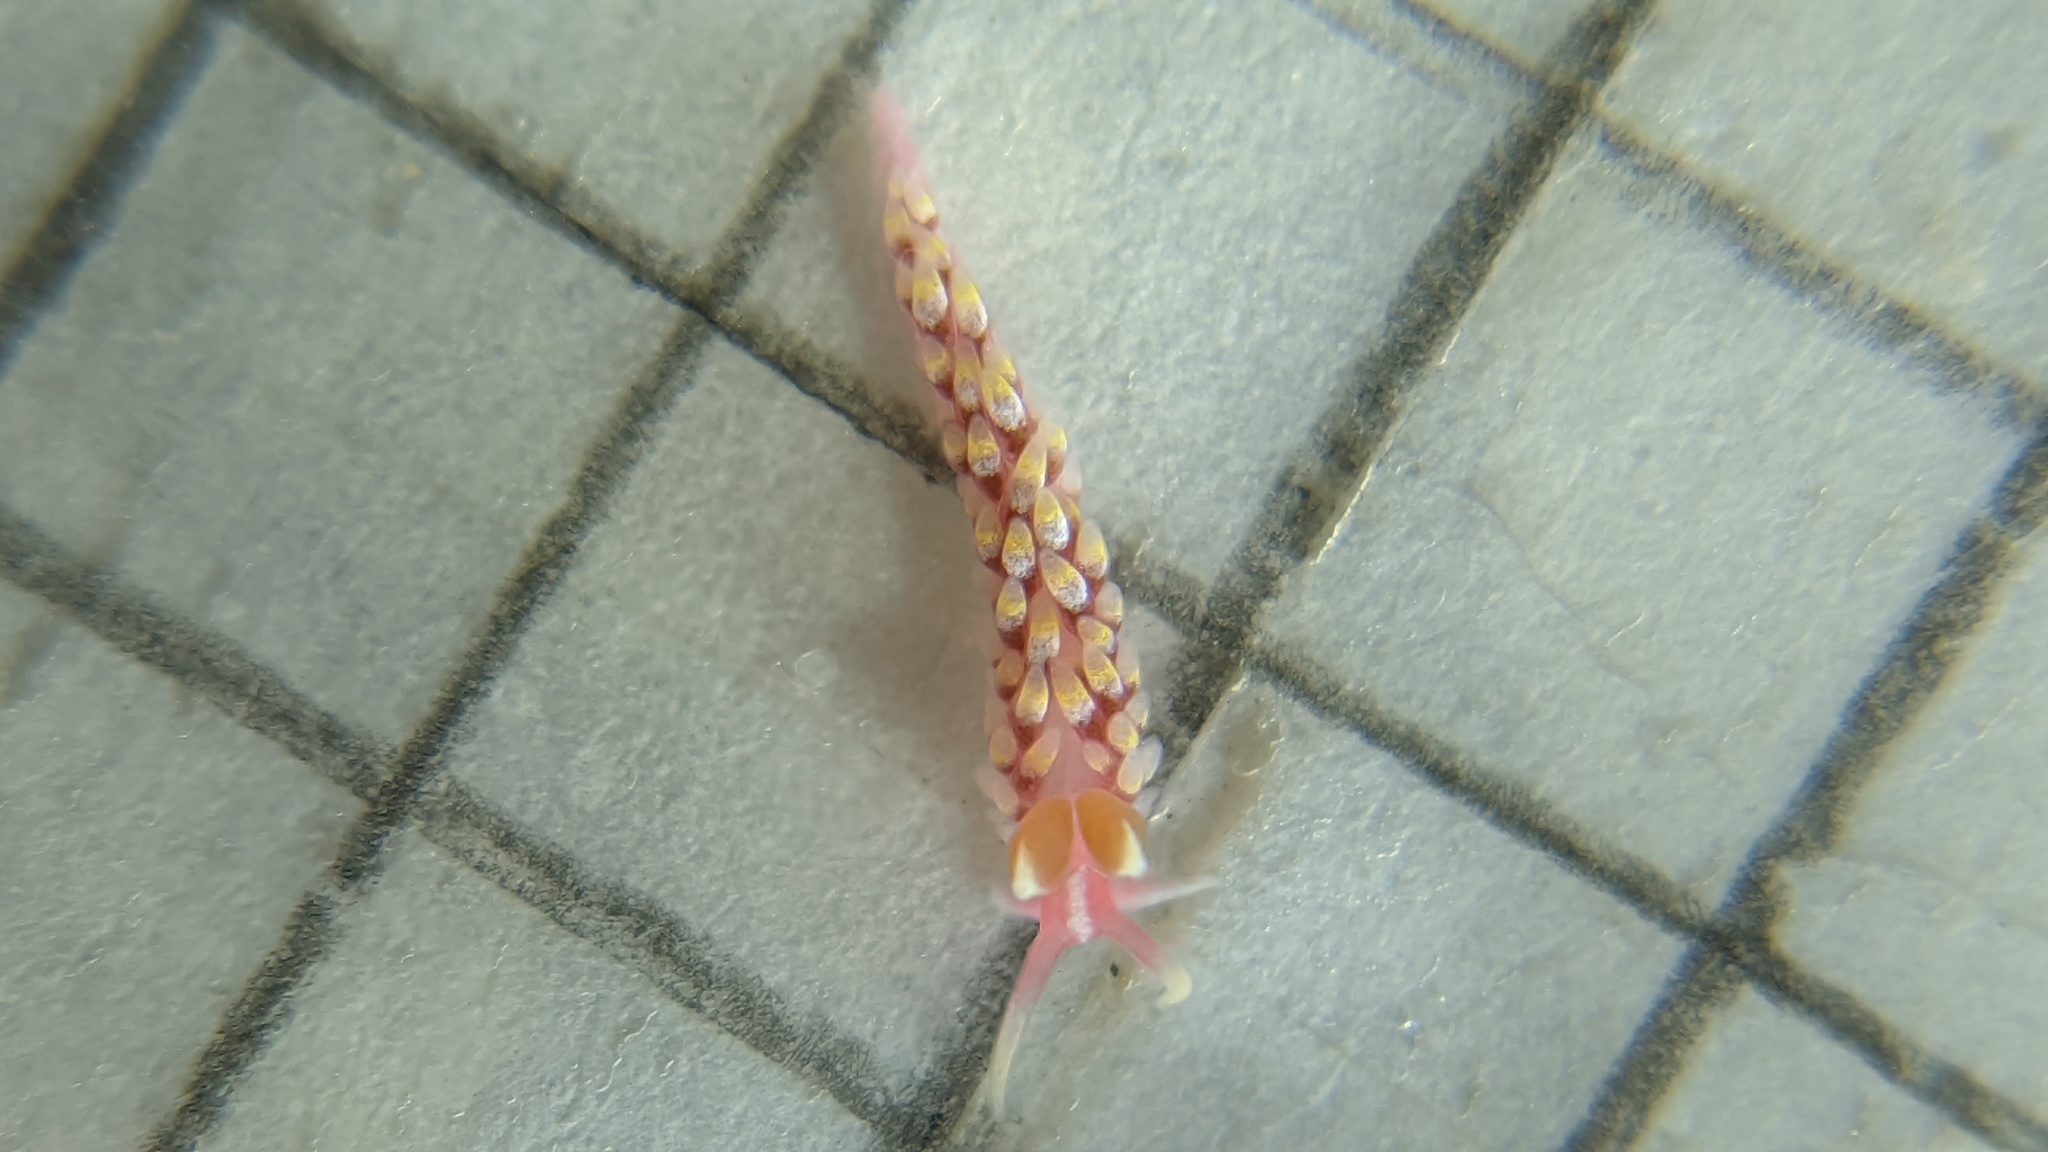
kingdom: Animalia
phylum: Mollusca
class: Gastropoda
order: Nudibranchia
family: Babakinidae
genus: Babakina
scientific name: Babakina festiva
